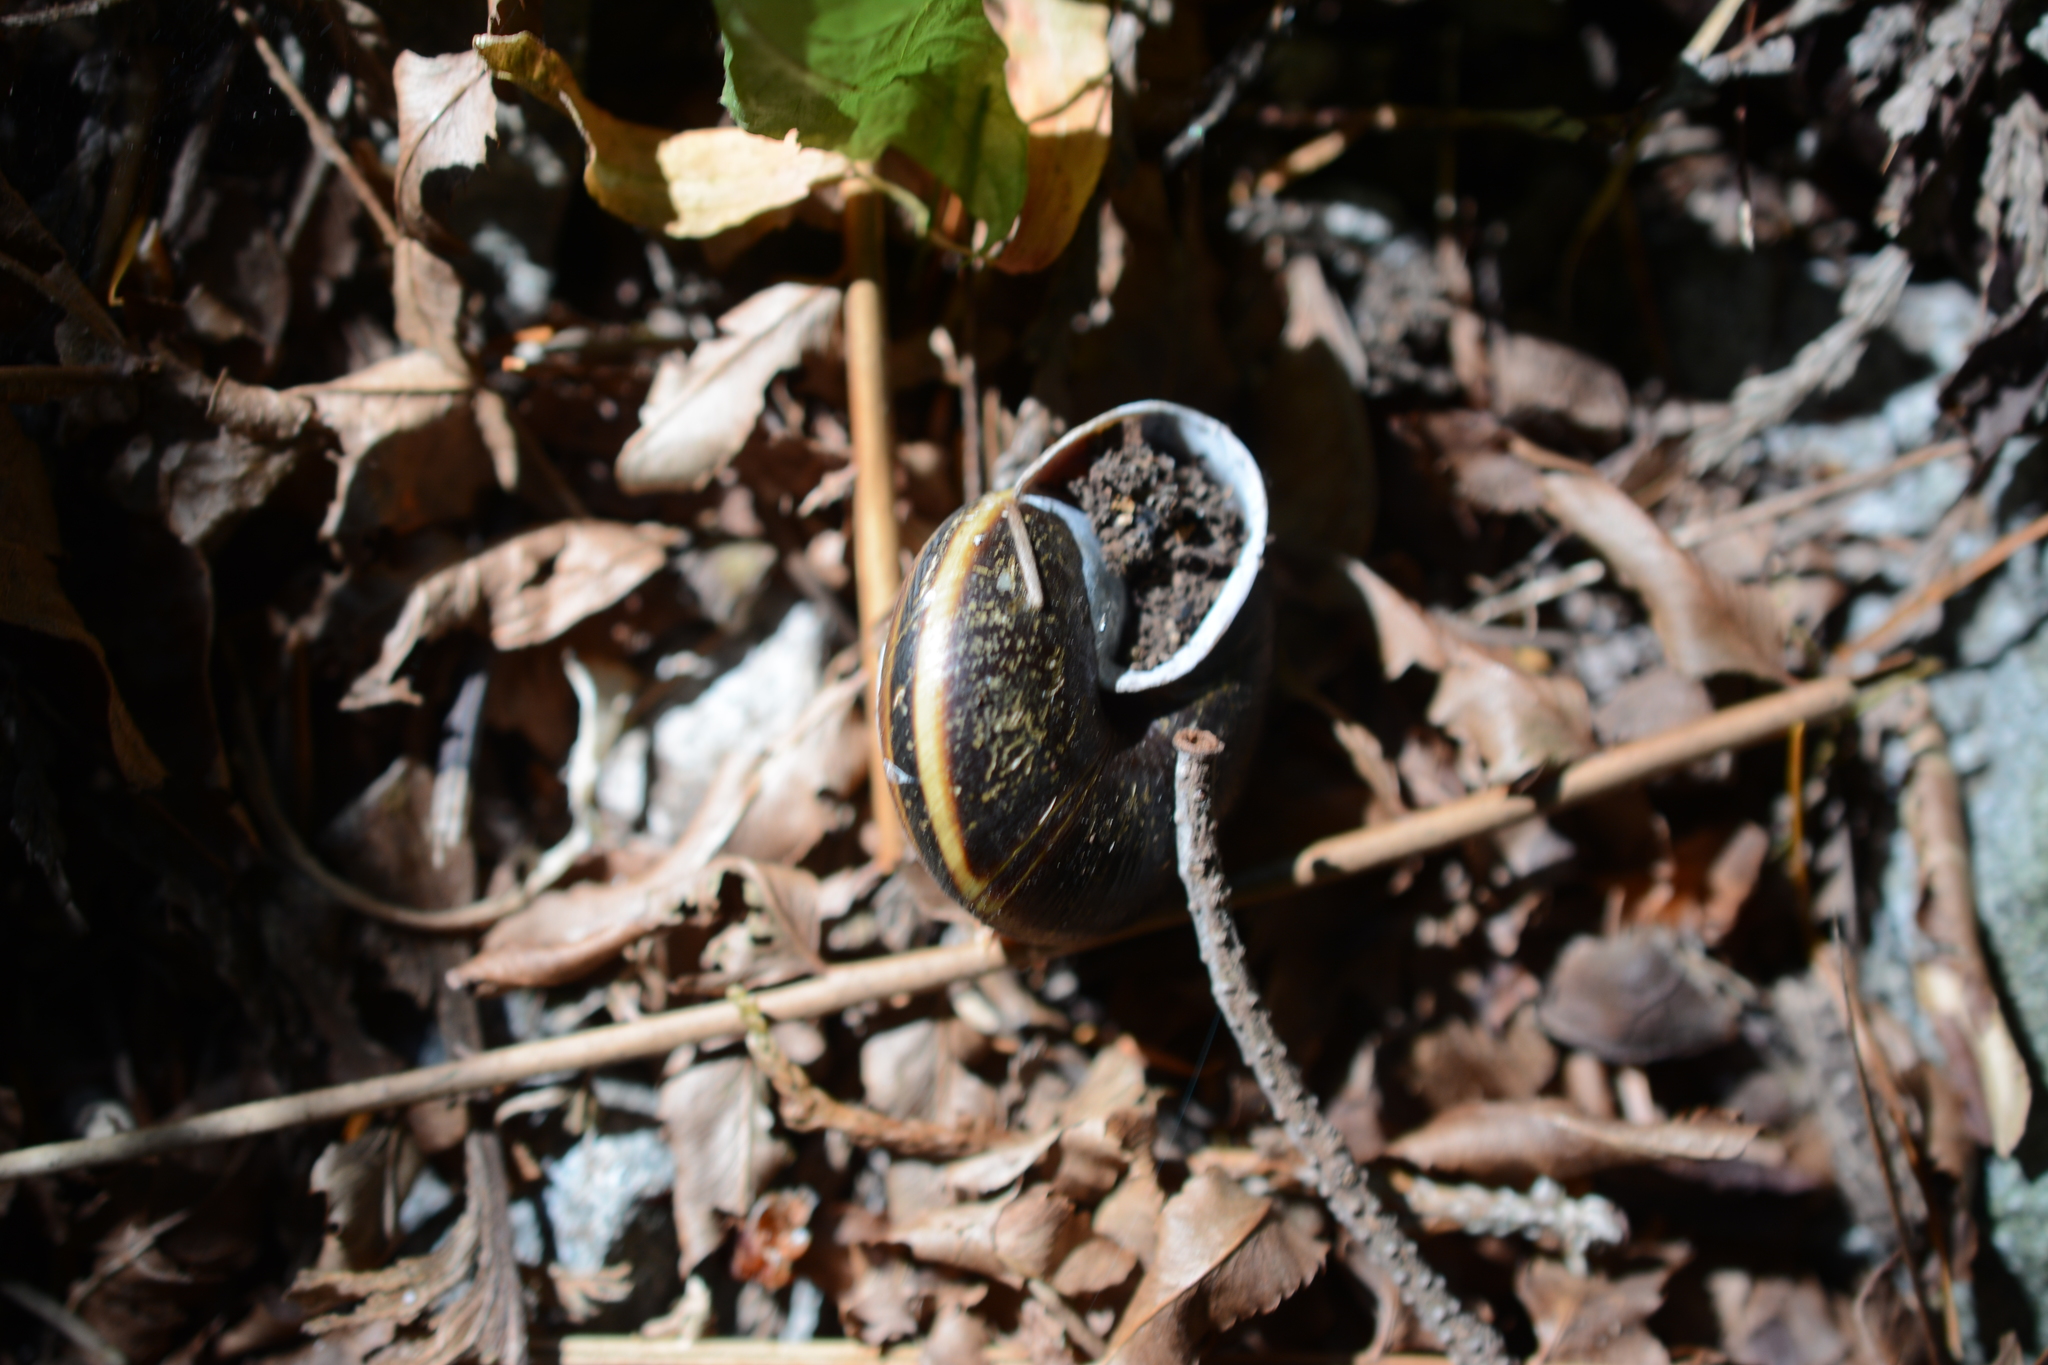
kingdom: Animalia
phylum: Mollusca
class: Gastropoda
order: Stylommatophora
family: Xanthonychidae
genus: Monadenia
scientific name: Monadenia fidelis
